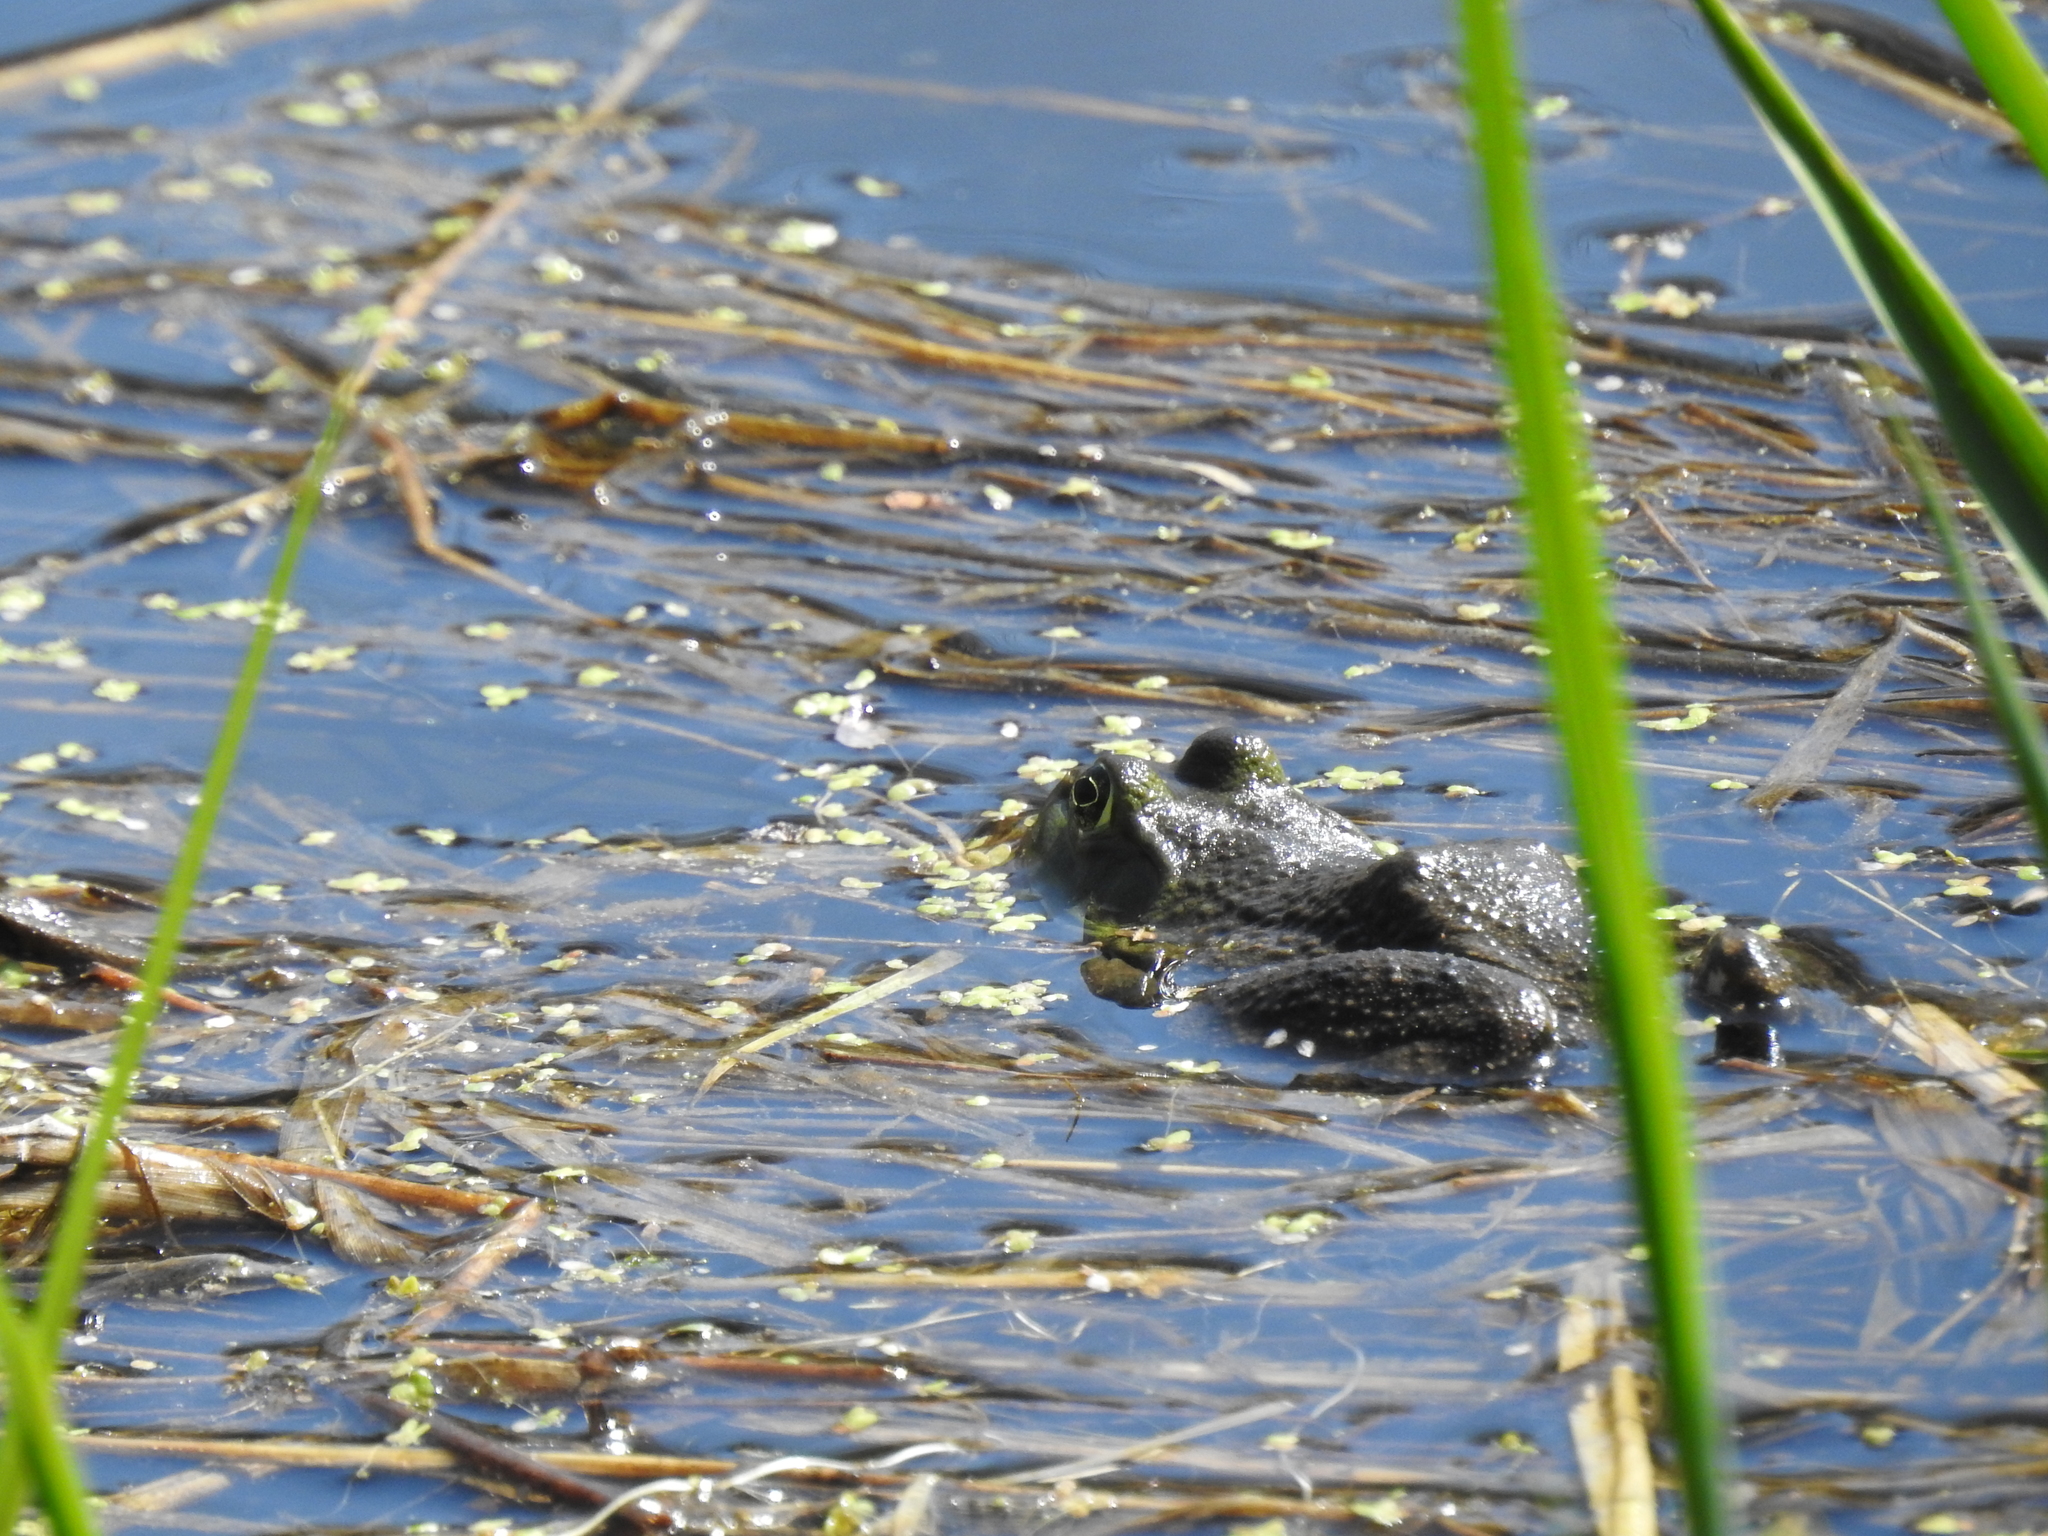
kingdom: Animalia
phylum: Chordata
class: Amphibia
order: Anura
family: Ranidae
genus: Lithobates
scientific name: Lithobates catesbeianus
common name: American bullfrog
